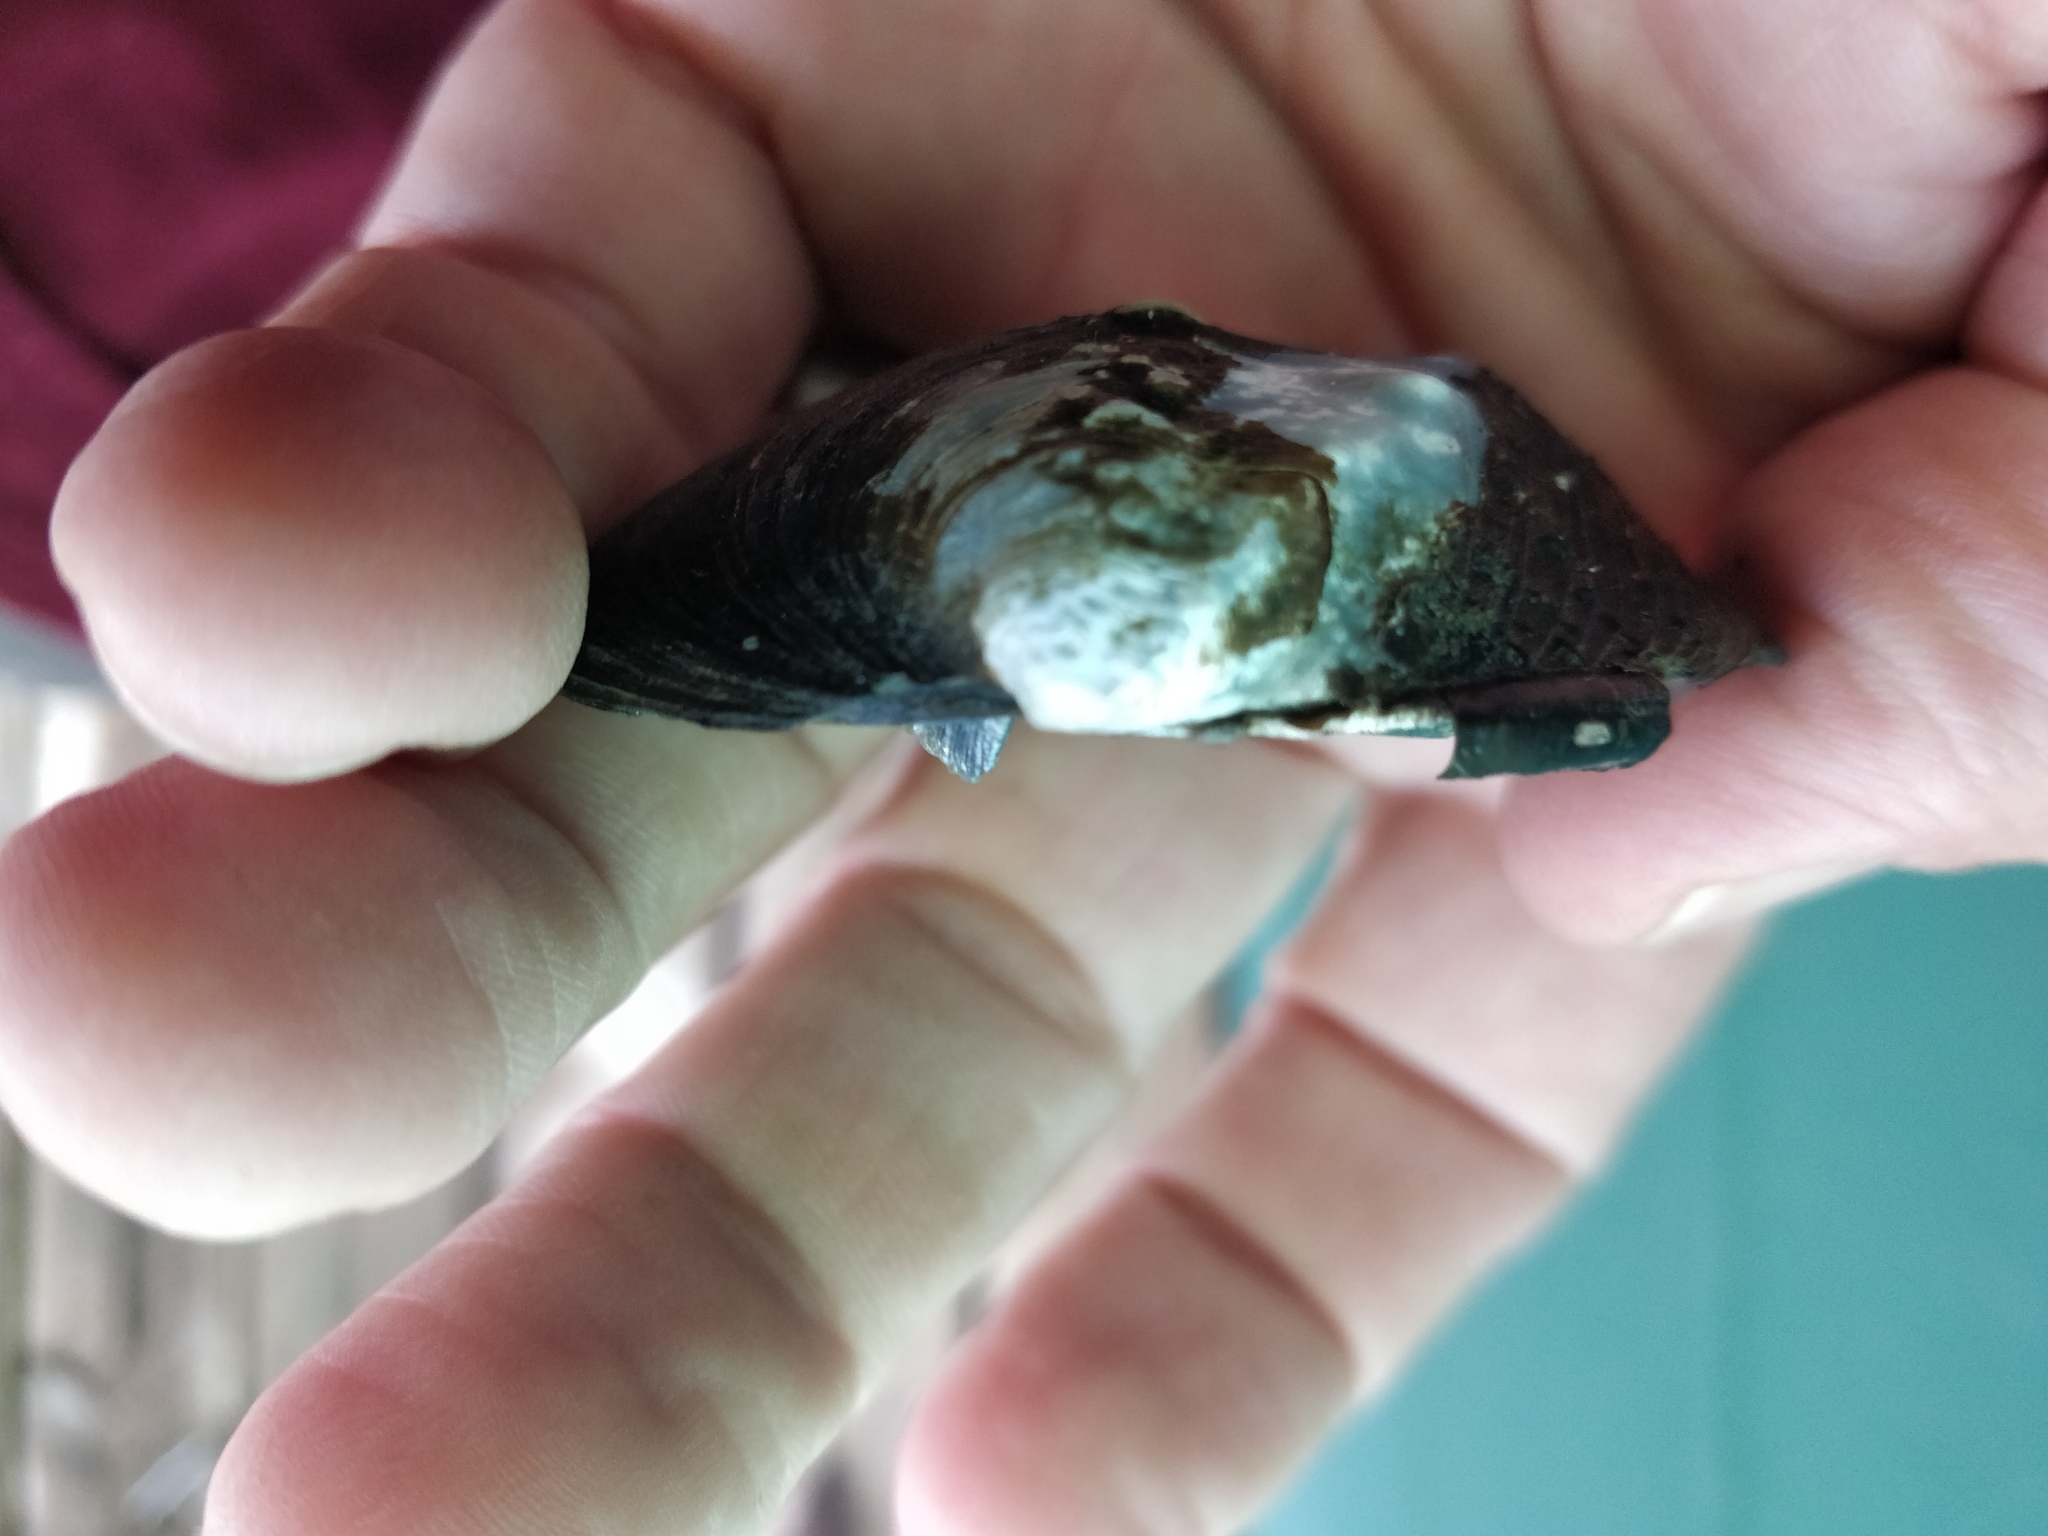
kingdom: Animalia
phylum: Mollusca
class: Bivalvia
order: Unionida
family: Unionidae
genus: Quadrula
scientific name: Quadrula quadrula
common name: Mapleleaf
